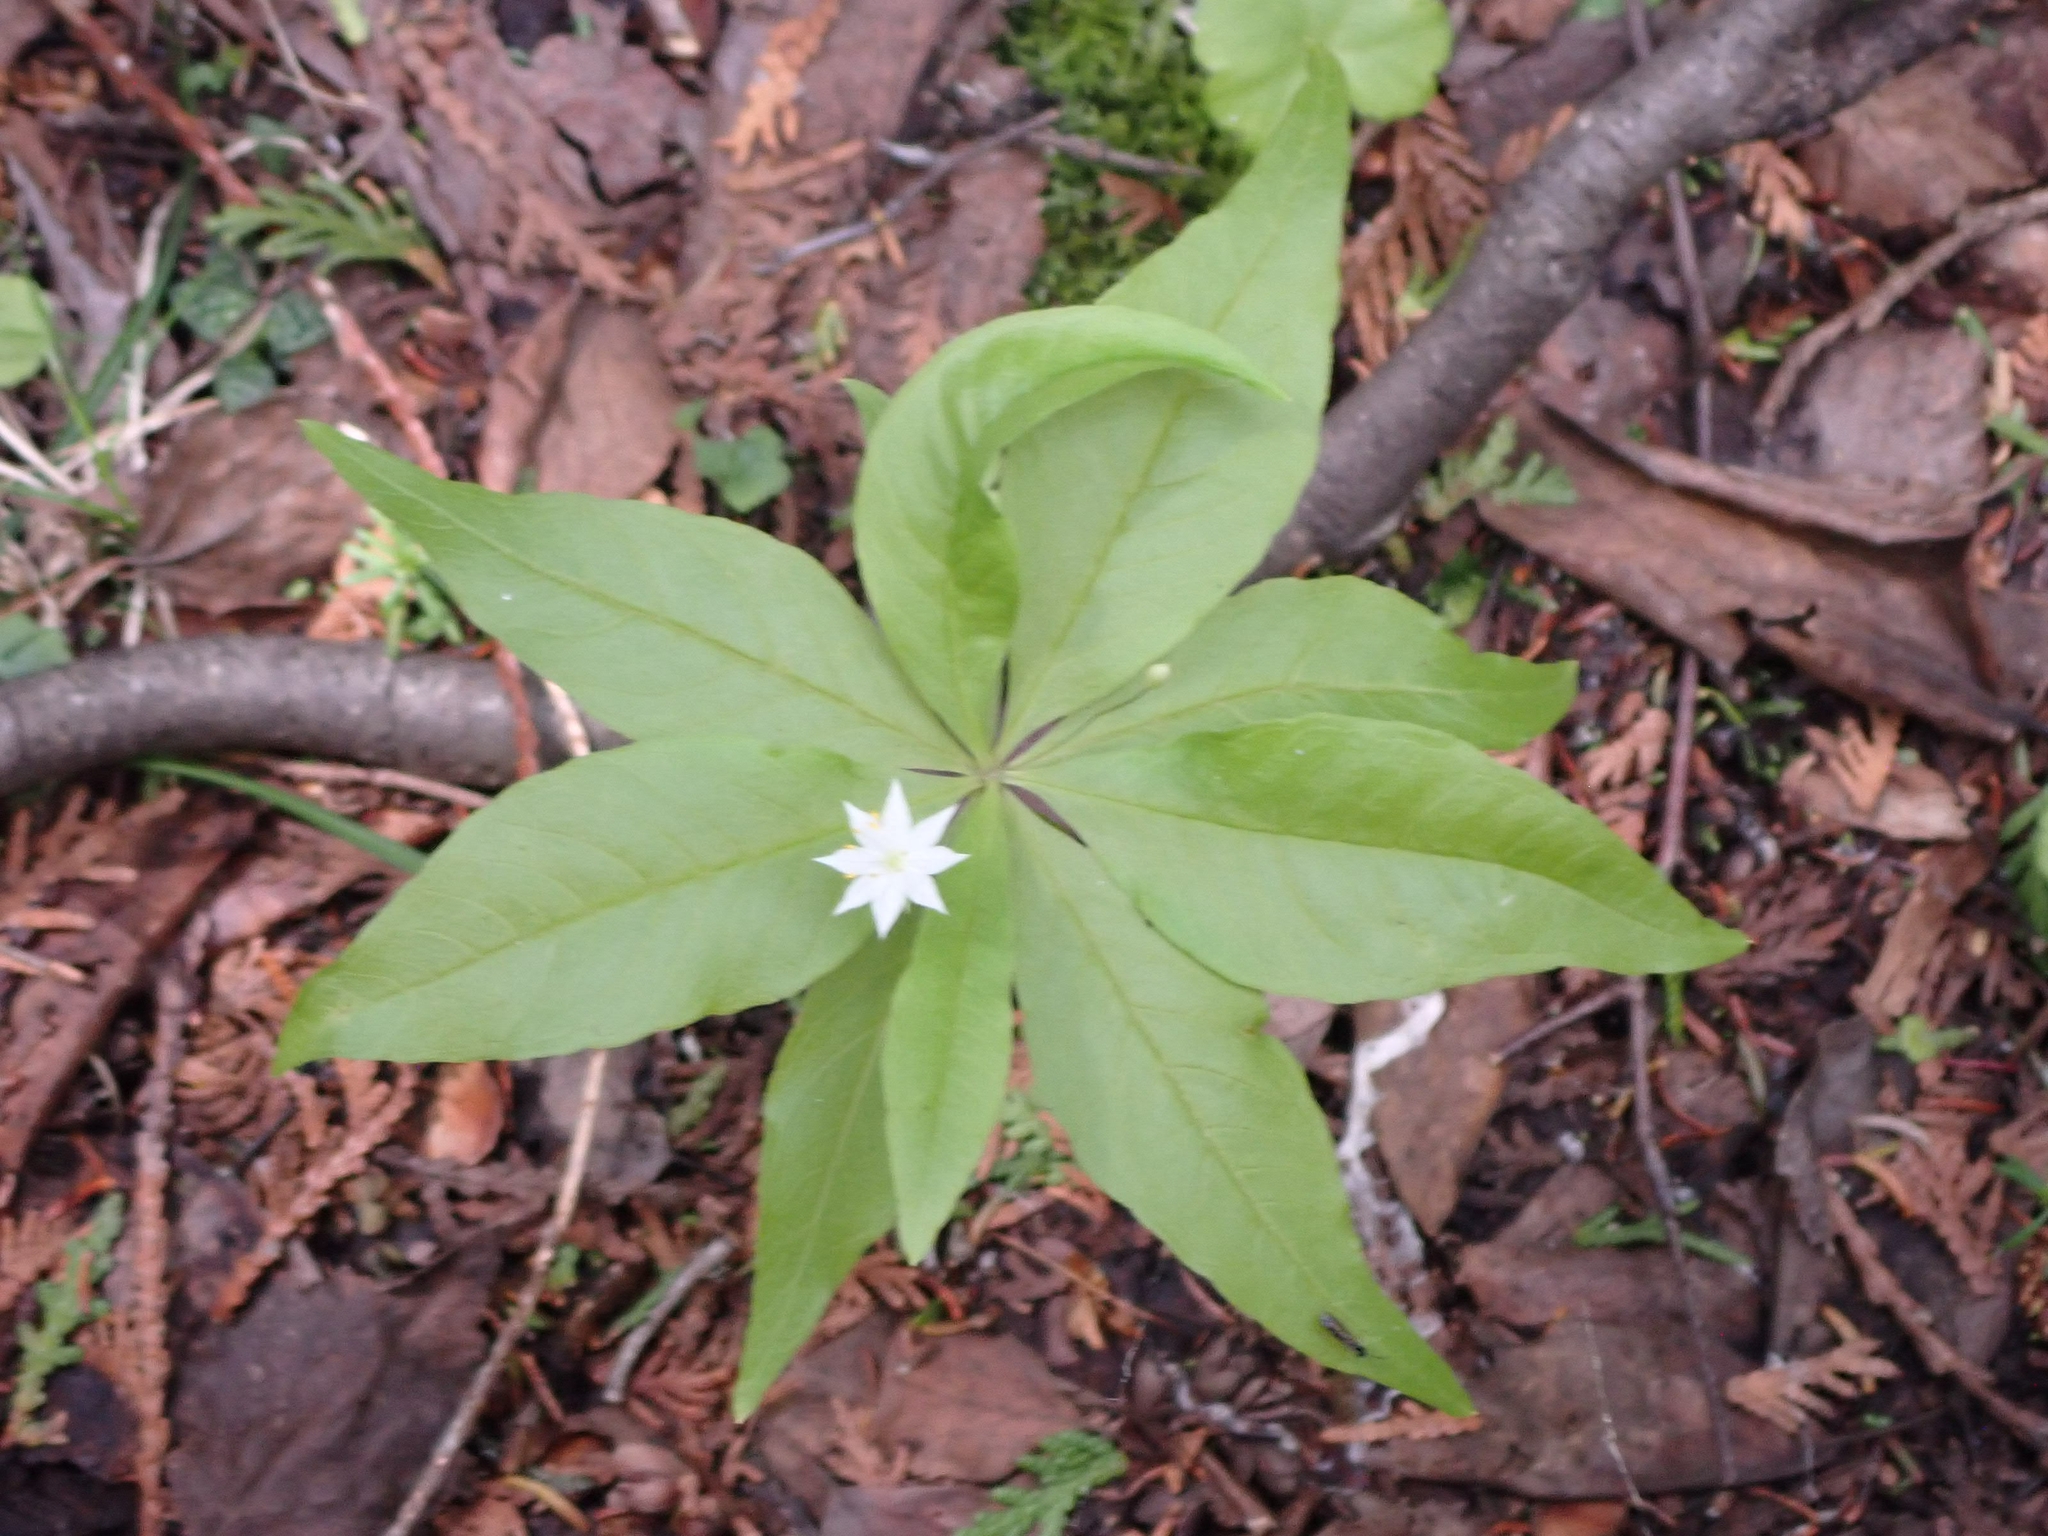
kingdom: Plantae
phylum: Tracheophyta
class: Magnoliopsida
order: Ericales
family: Primulaceae
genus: Lysimachia
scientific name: Lysimachia borealis
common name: American starflower
